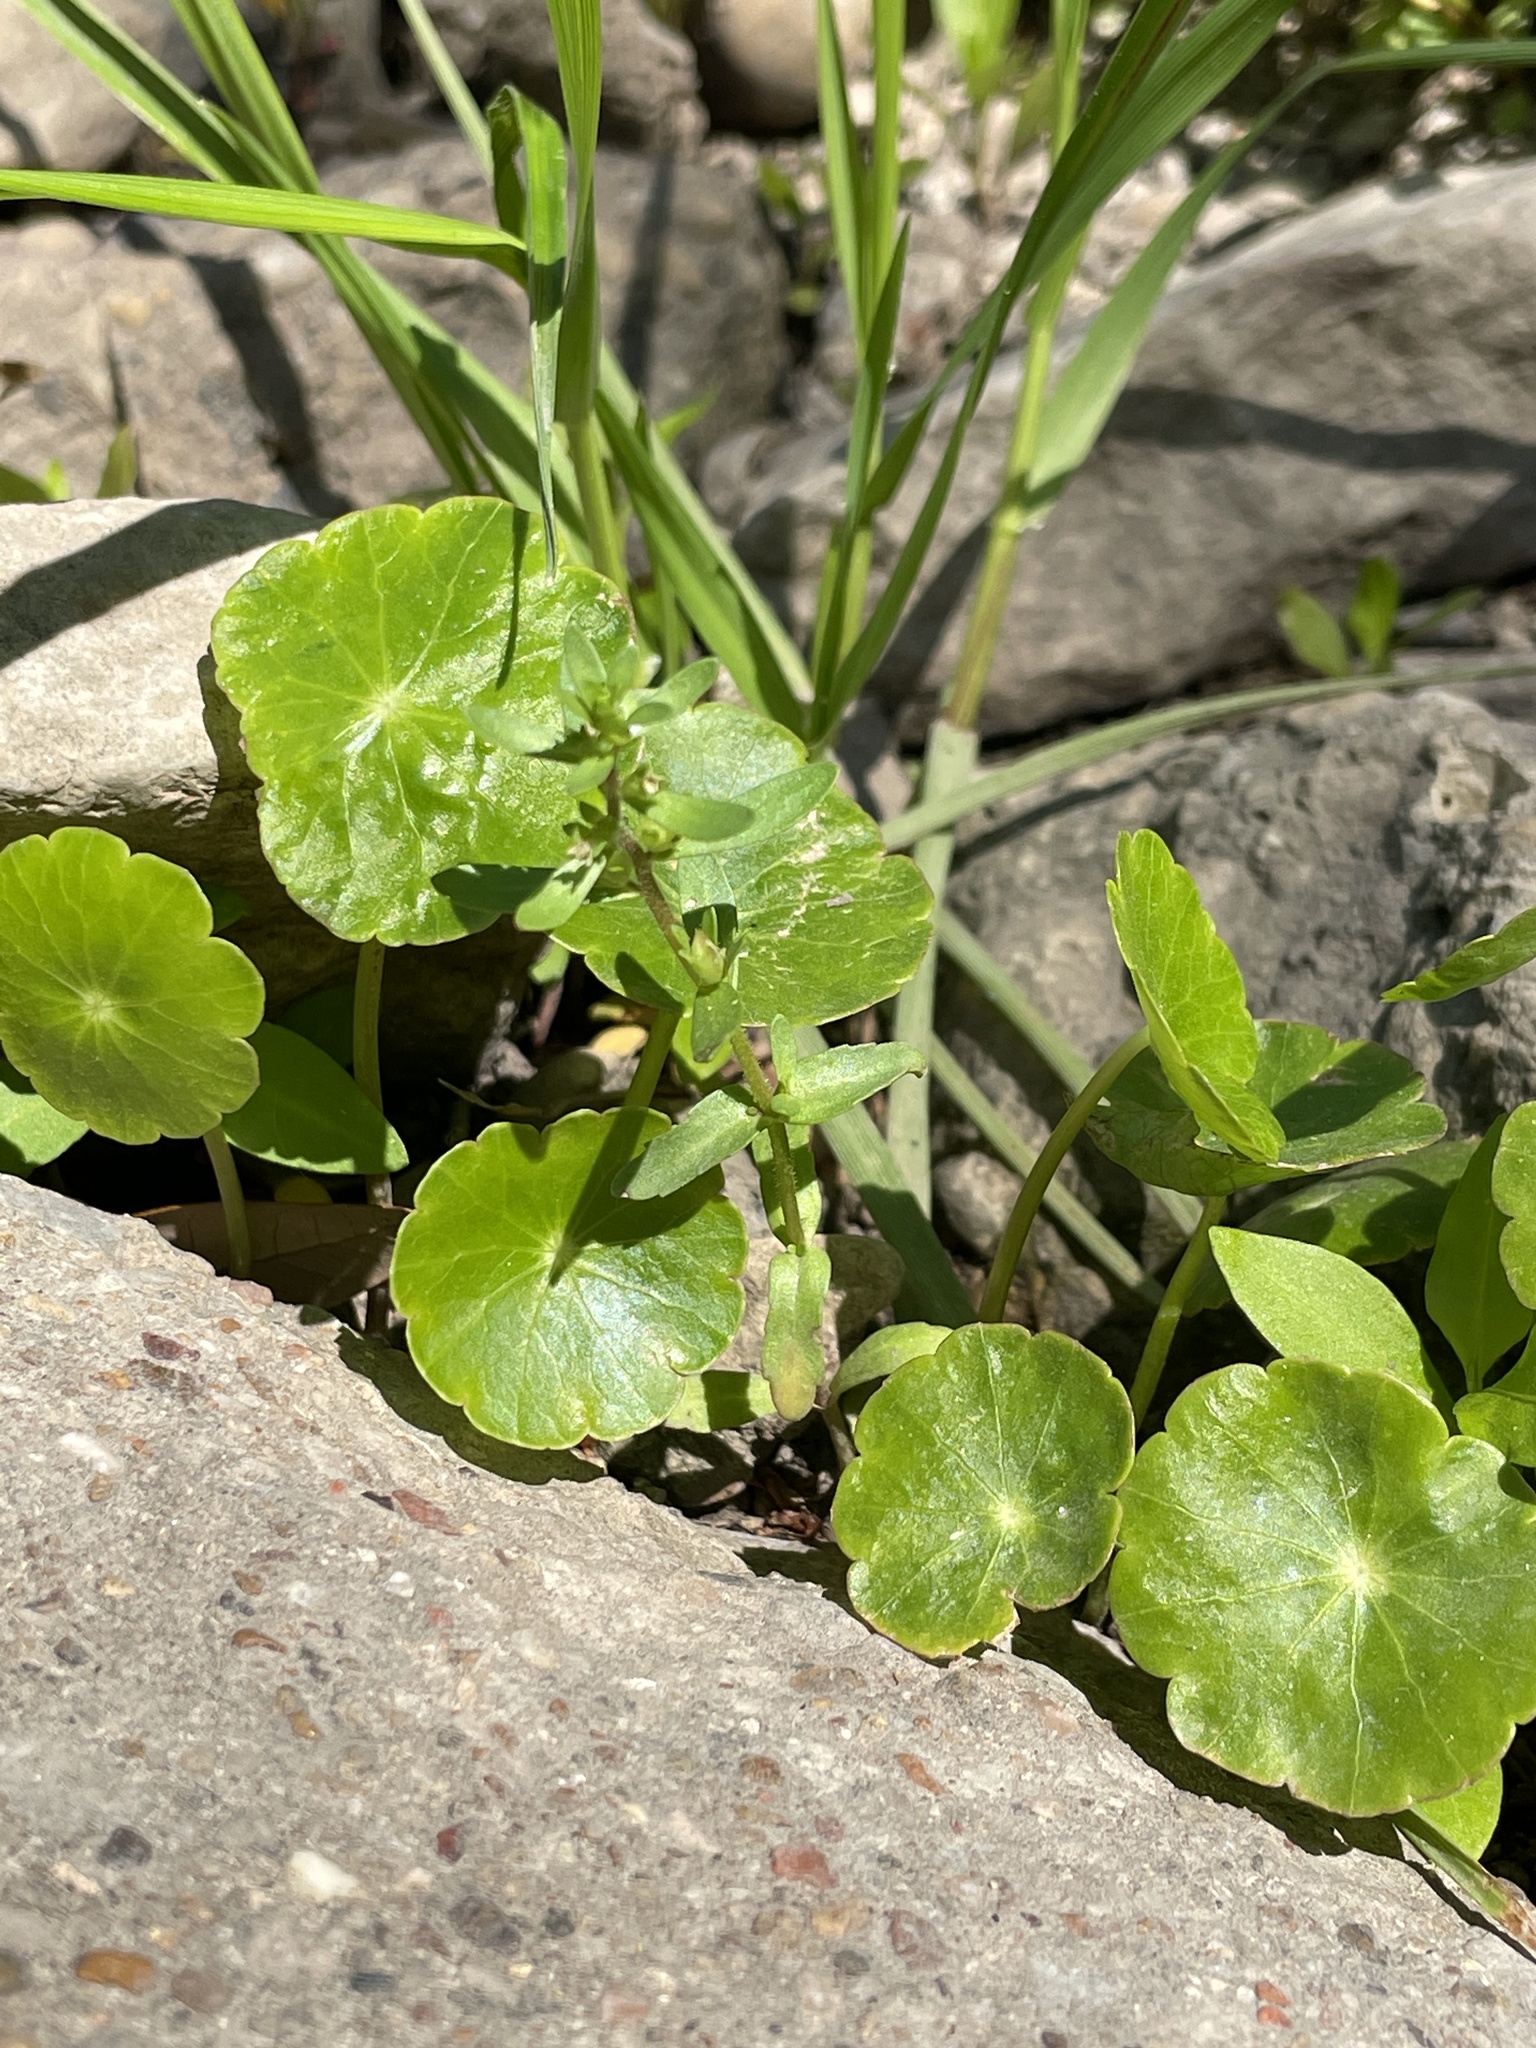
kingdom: Plantae
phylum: Tracheophyta
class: Magnoliopsida
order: Lamiales
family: Plantaginaceae
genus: Veronica
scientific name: Veronica peregrina
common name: Neckweed
